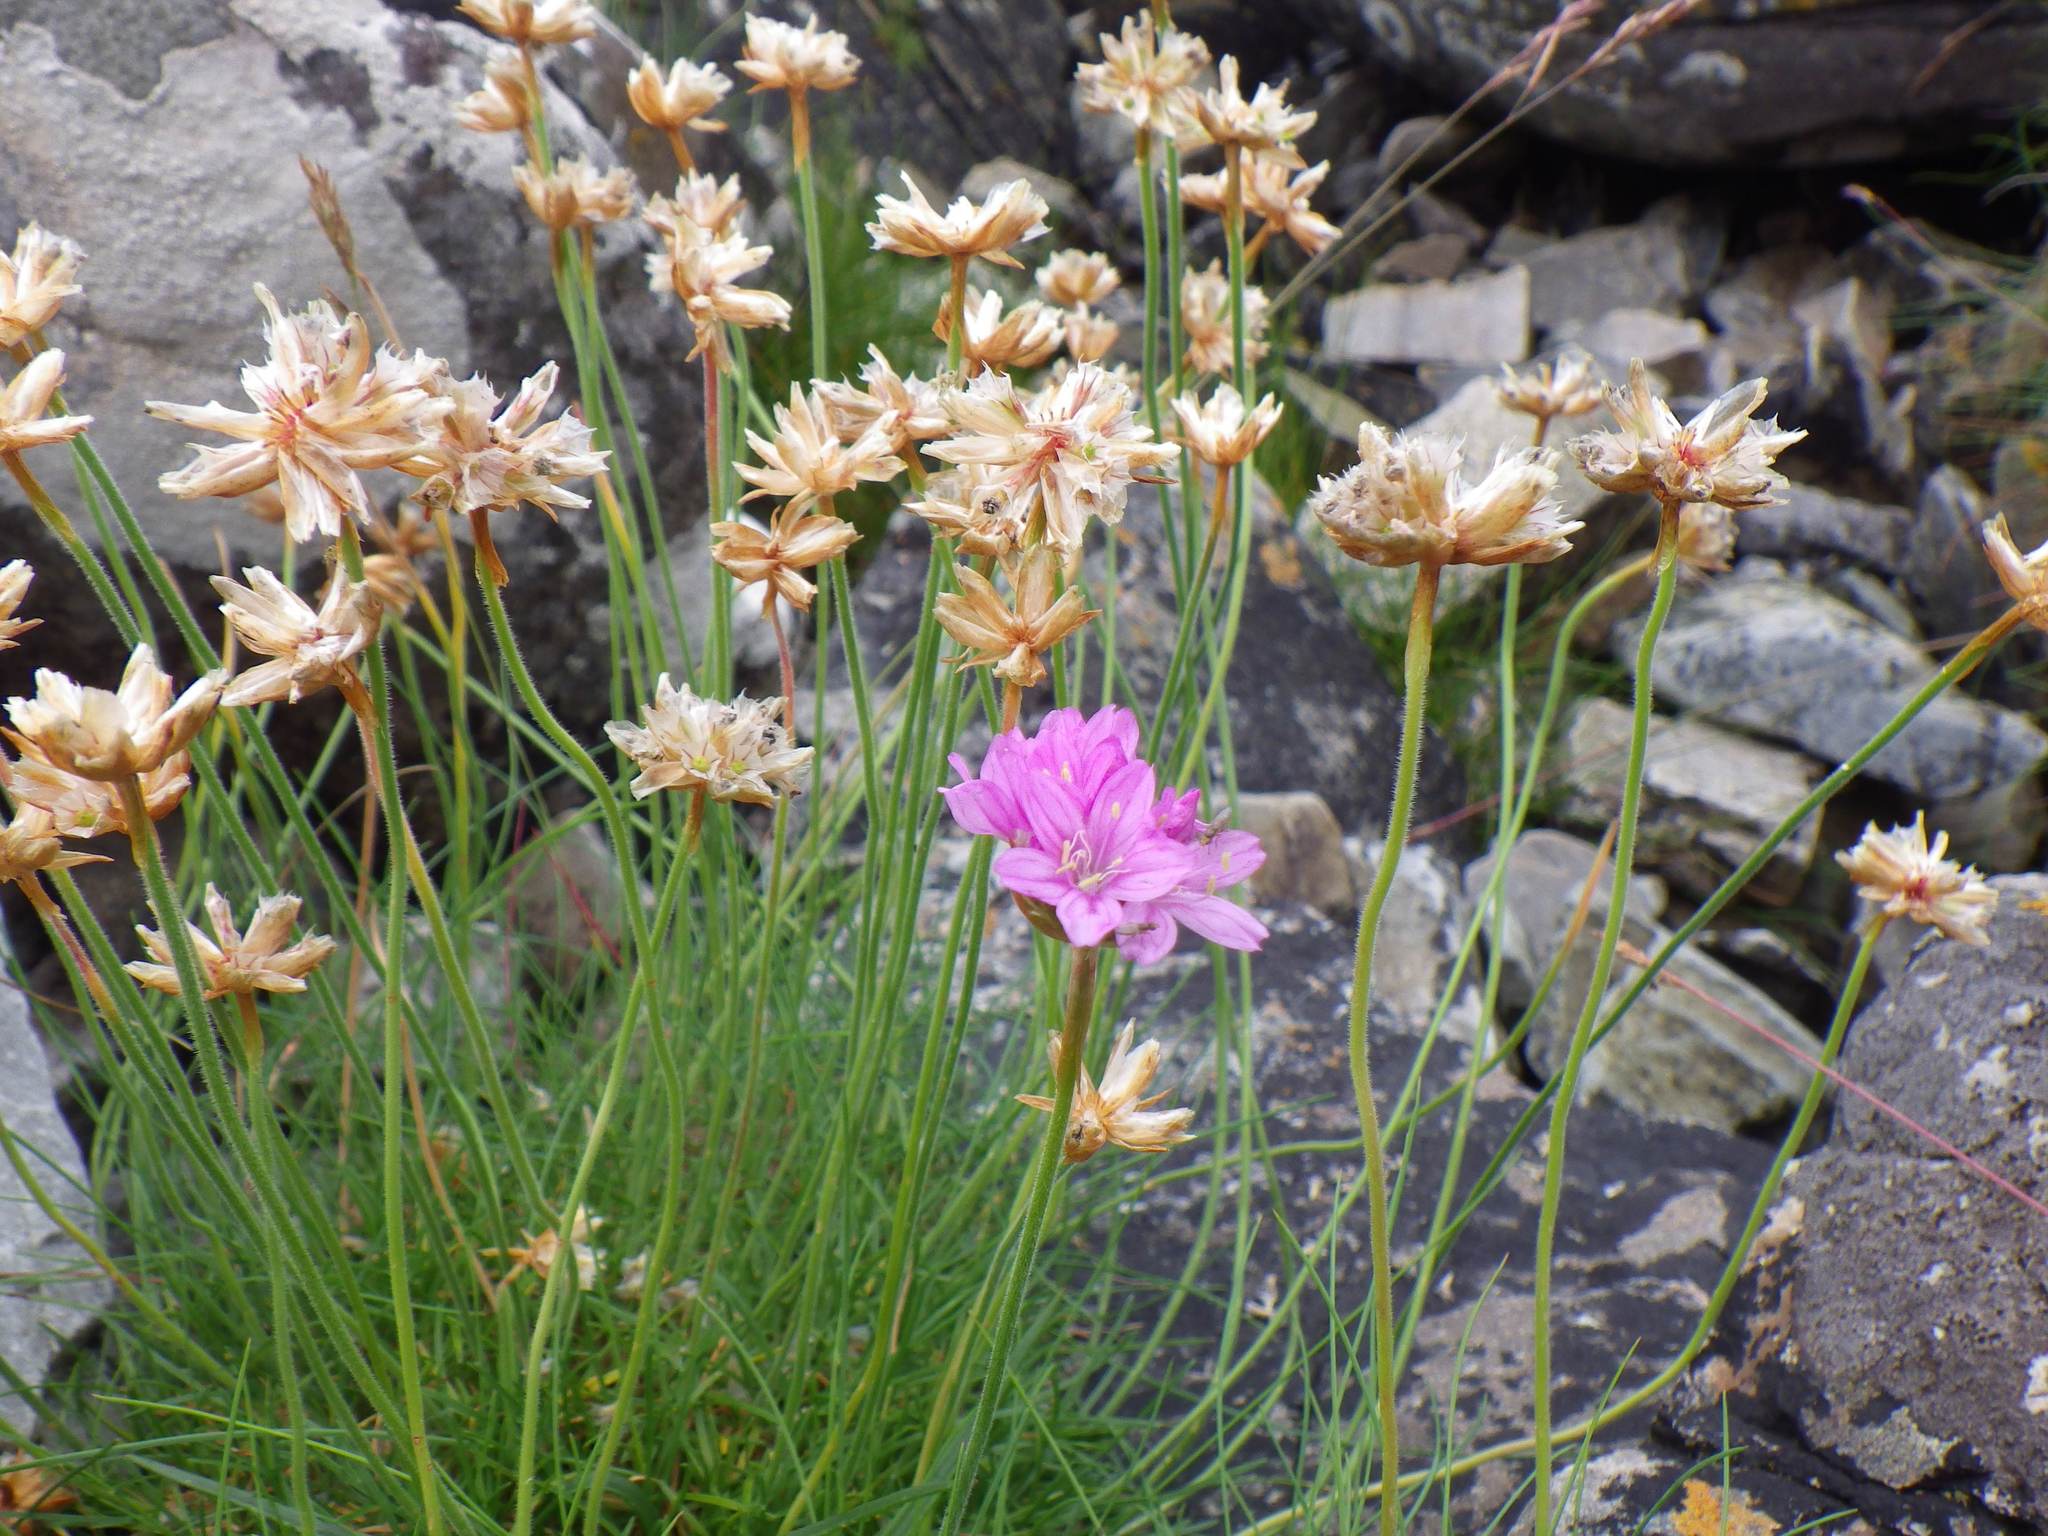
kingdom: Plantae
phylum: Tracheophyta
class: Magnoliopsida
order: Caryophyllales
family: Plumbaginaceae
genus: Armeria
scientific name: Armeria maritima
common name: Thrift
